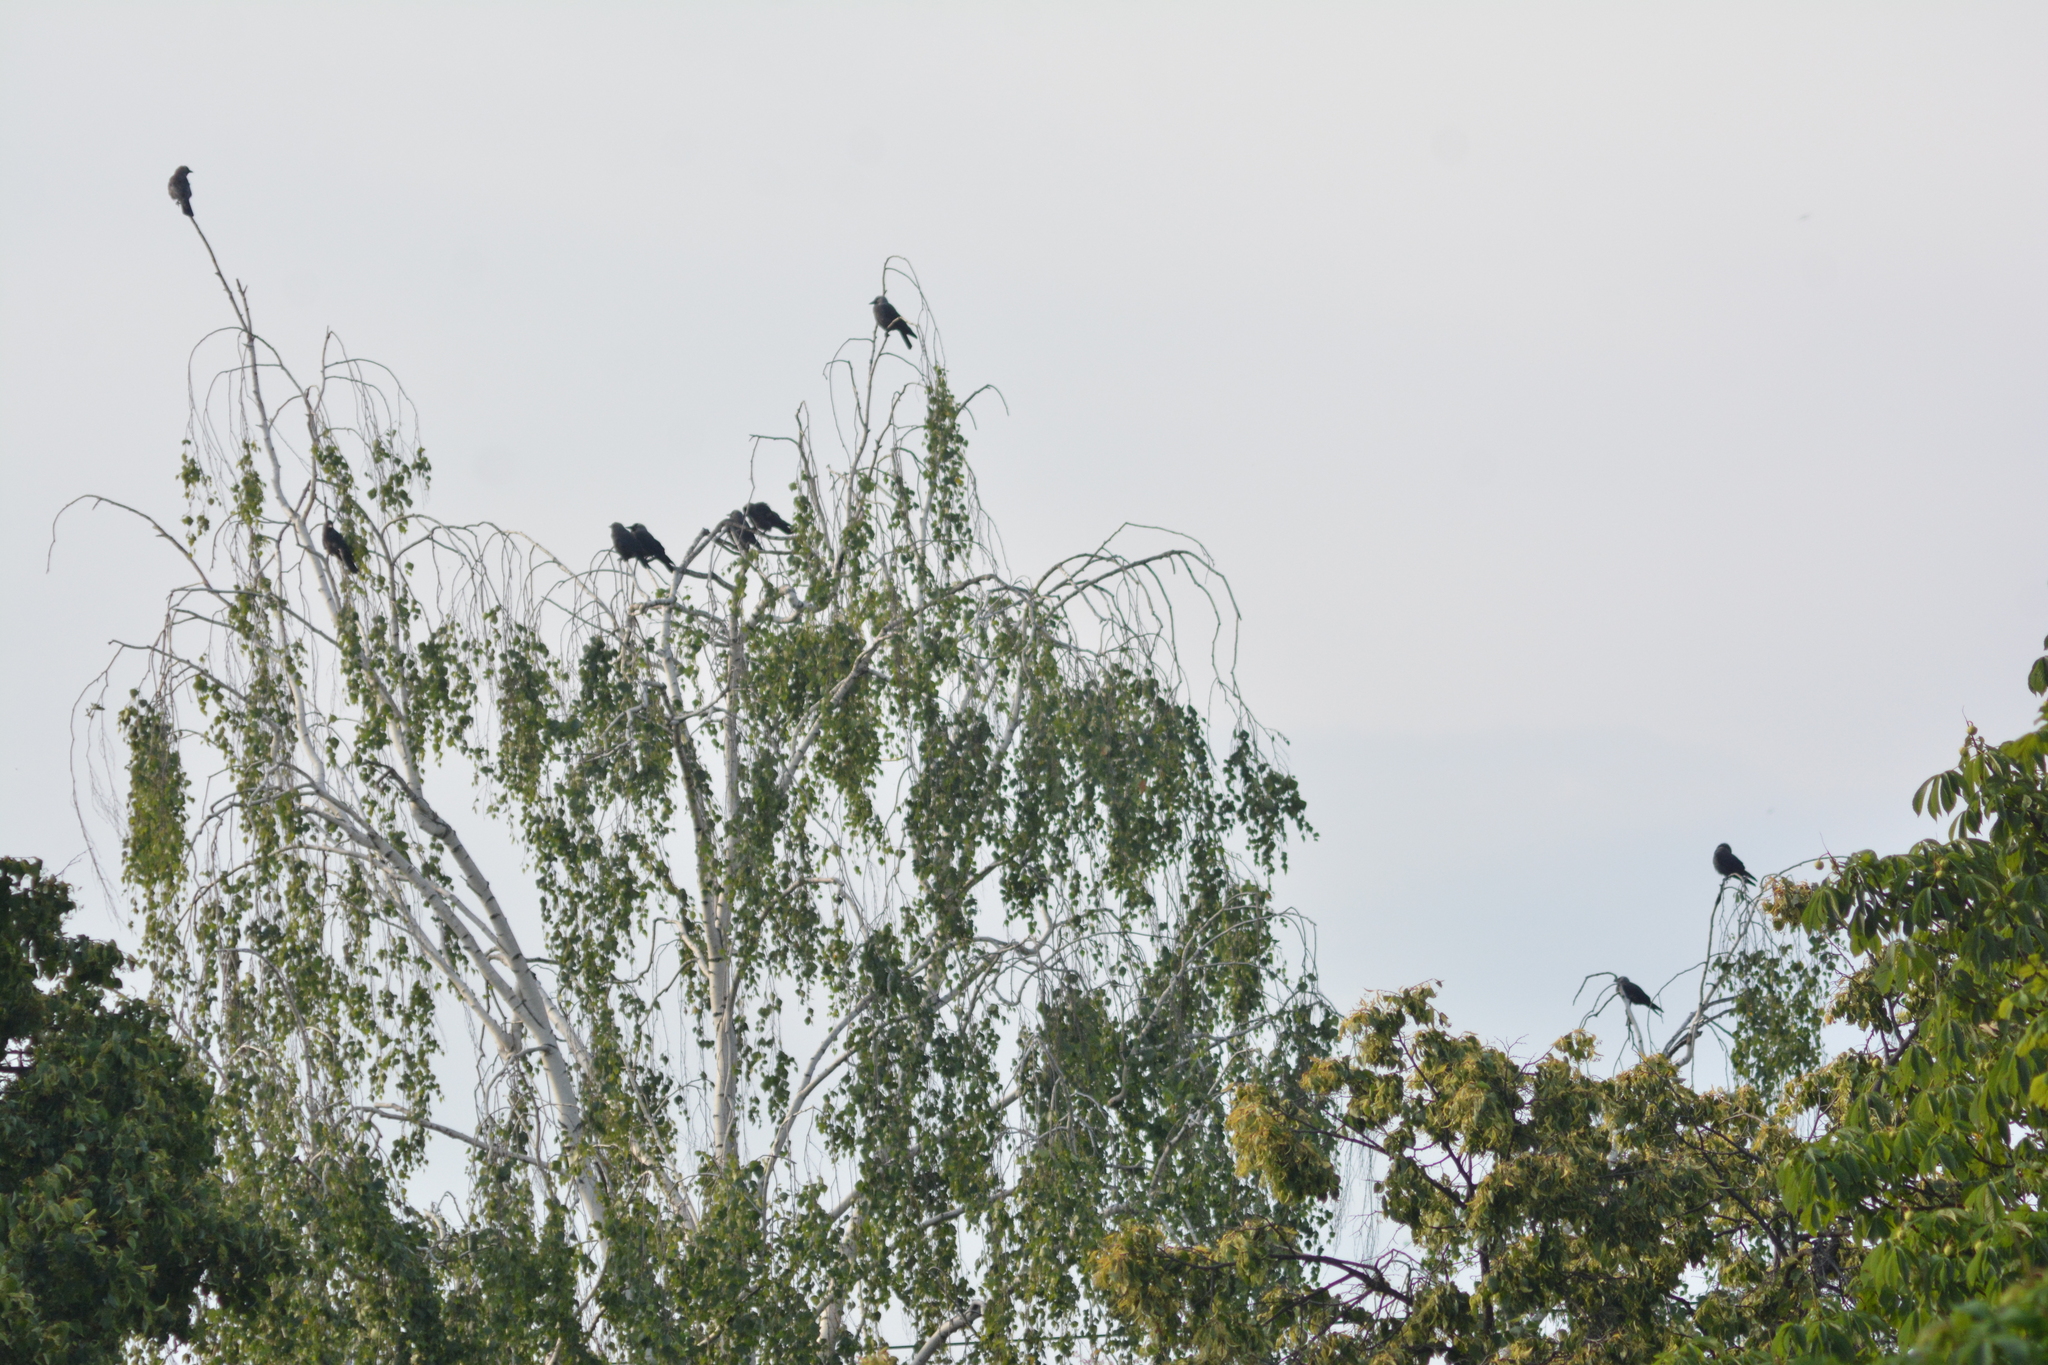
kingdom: Animalia
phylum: Chordata
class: Aves
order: Passeriformes
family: Corvidae
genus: Coloeus
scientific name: Coloeus monedula
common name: Western jackdaw
